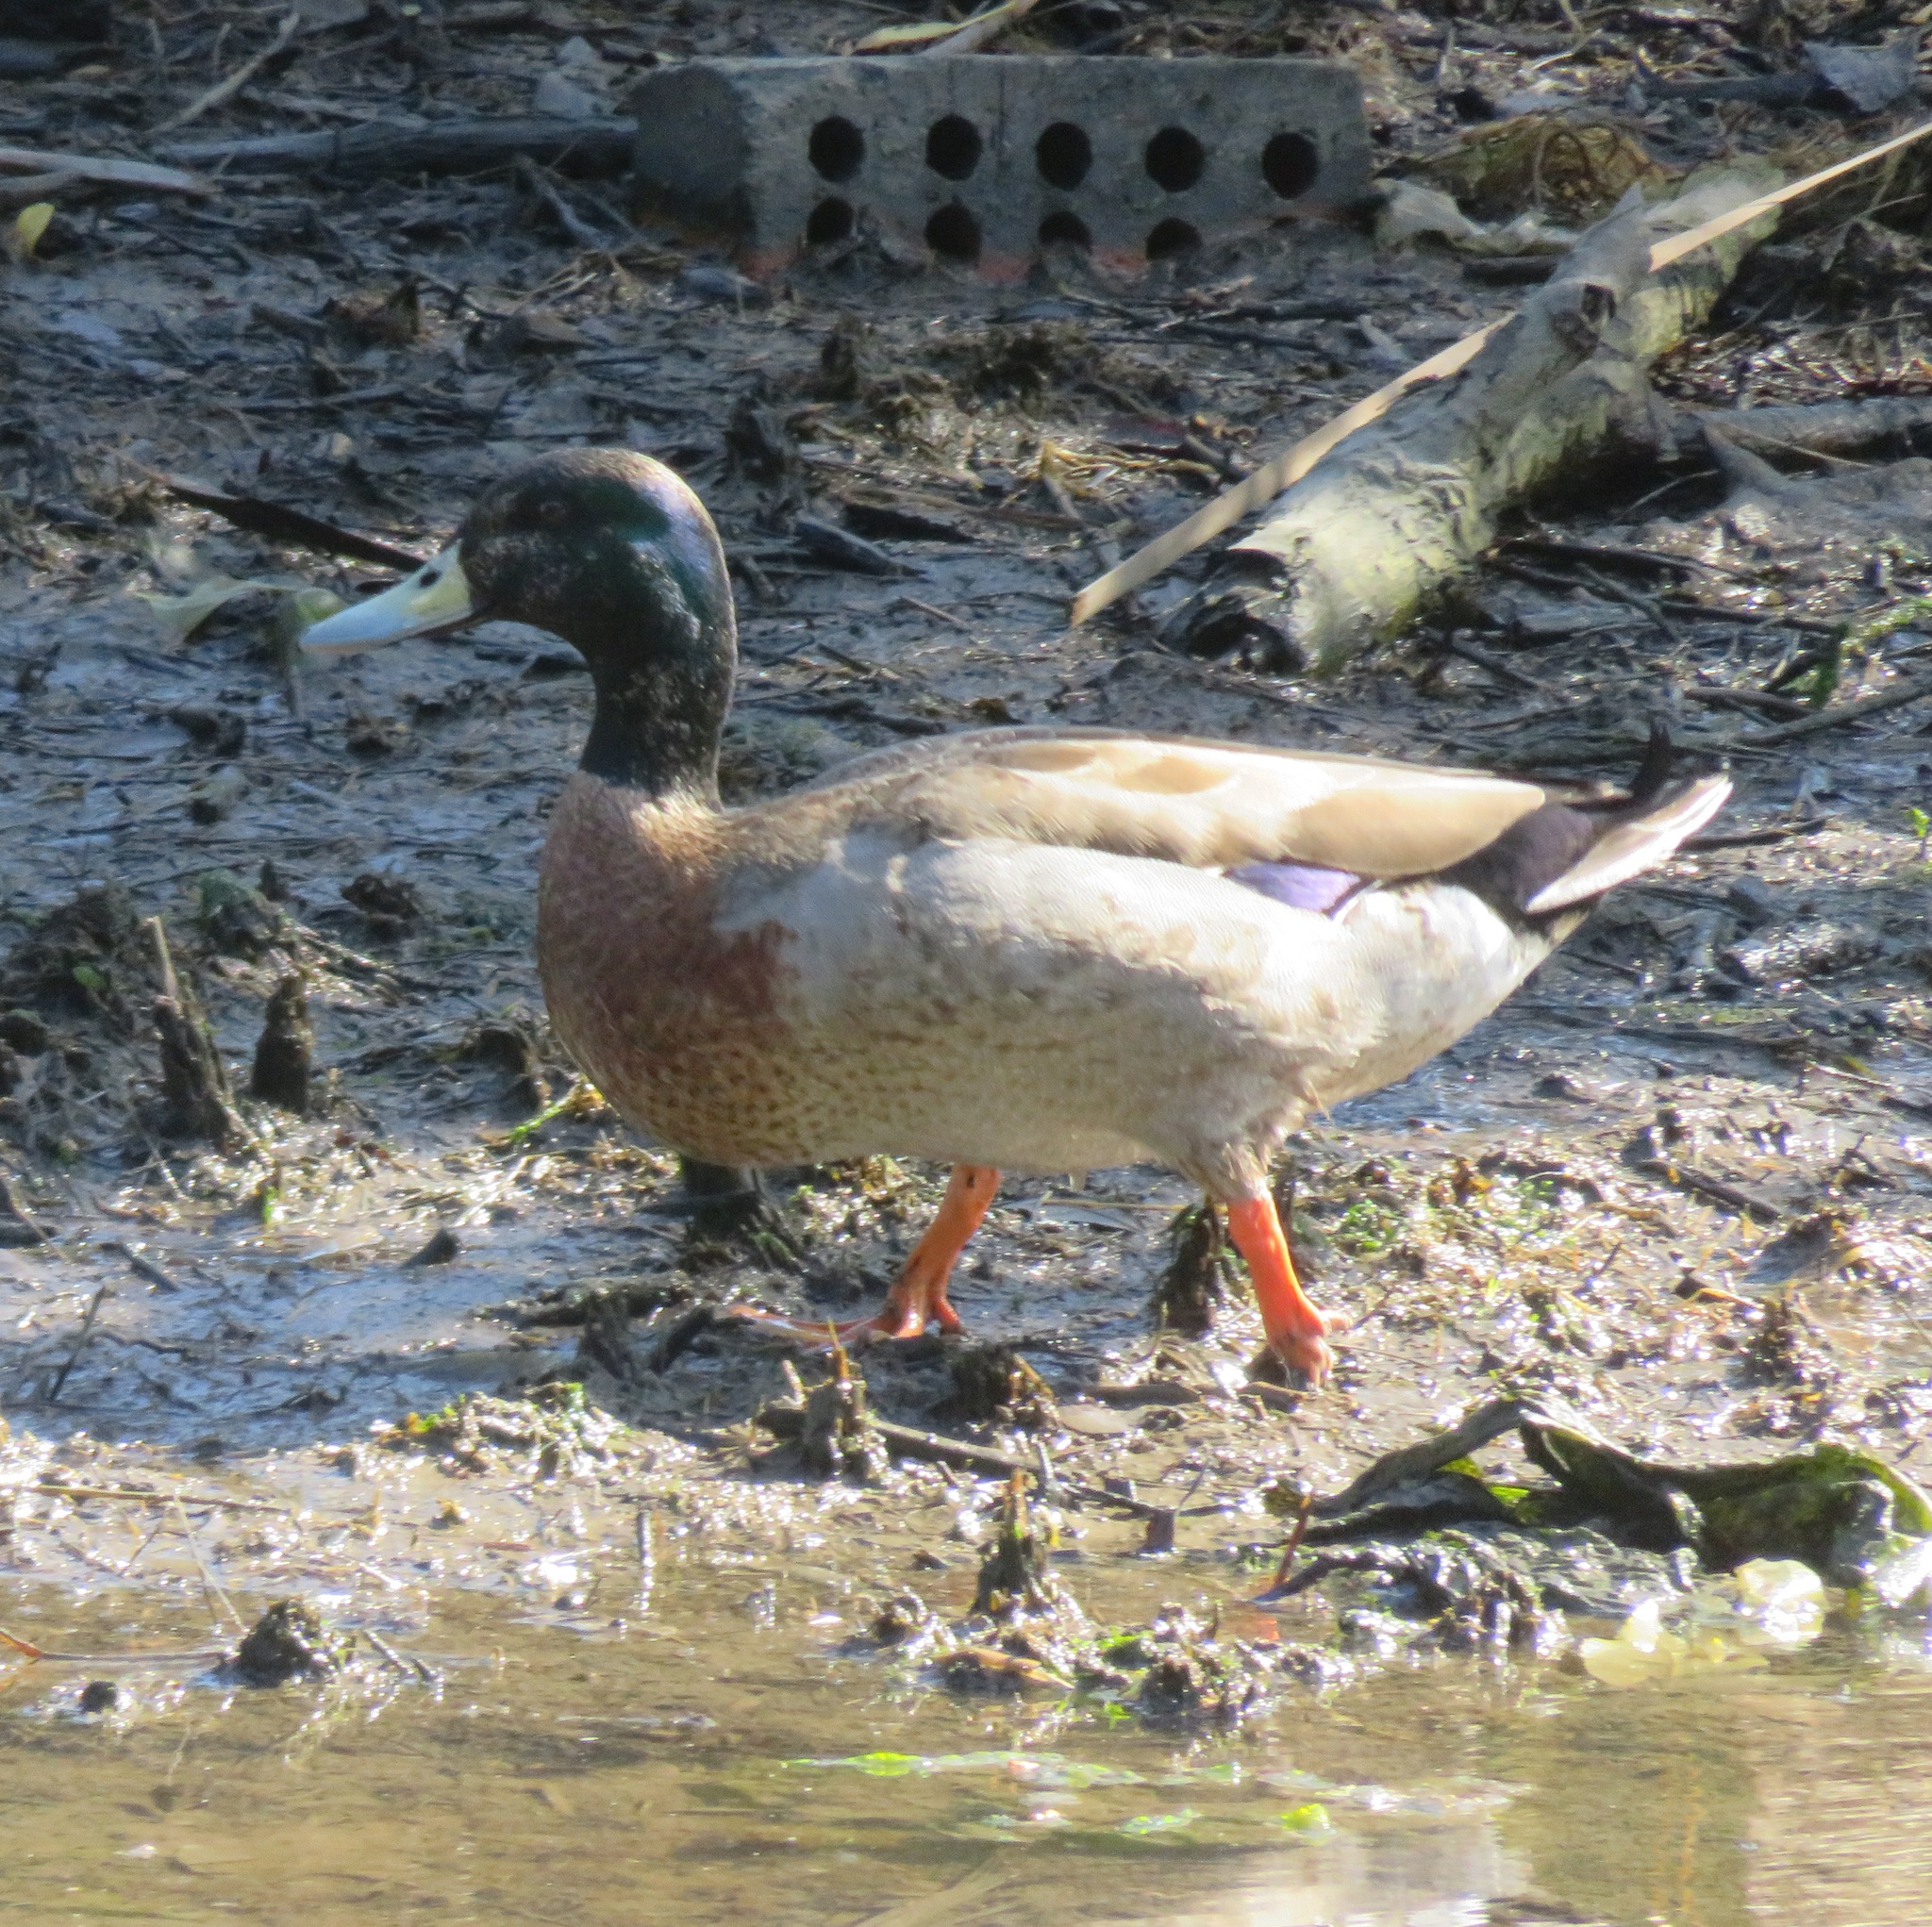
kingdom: Animalia
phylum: Chordata
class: Aves
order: Anseriformes
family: Anatidae
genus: Anas
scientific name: Anas platyrhynchos
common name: Mallard
